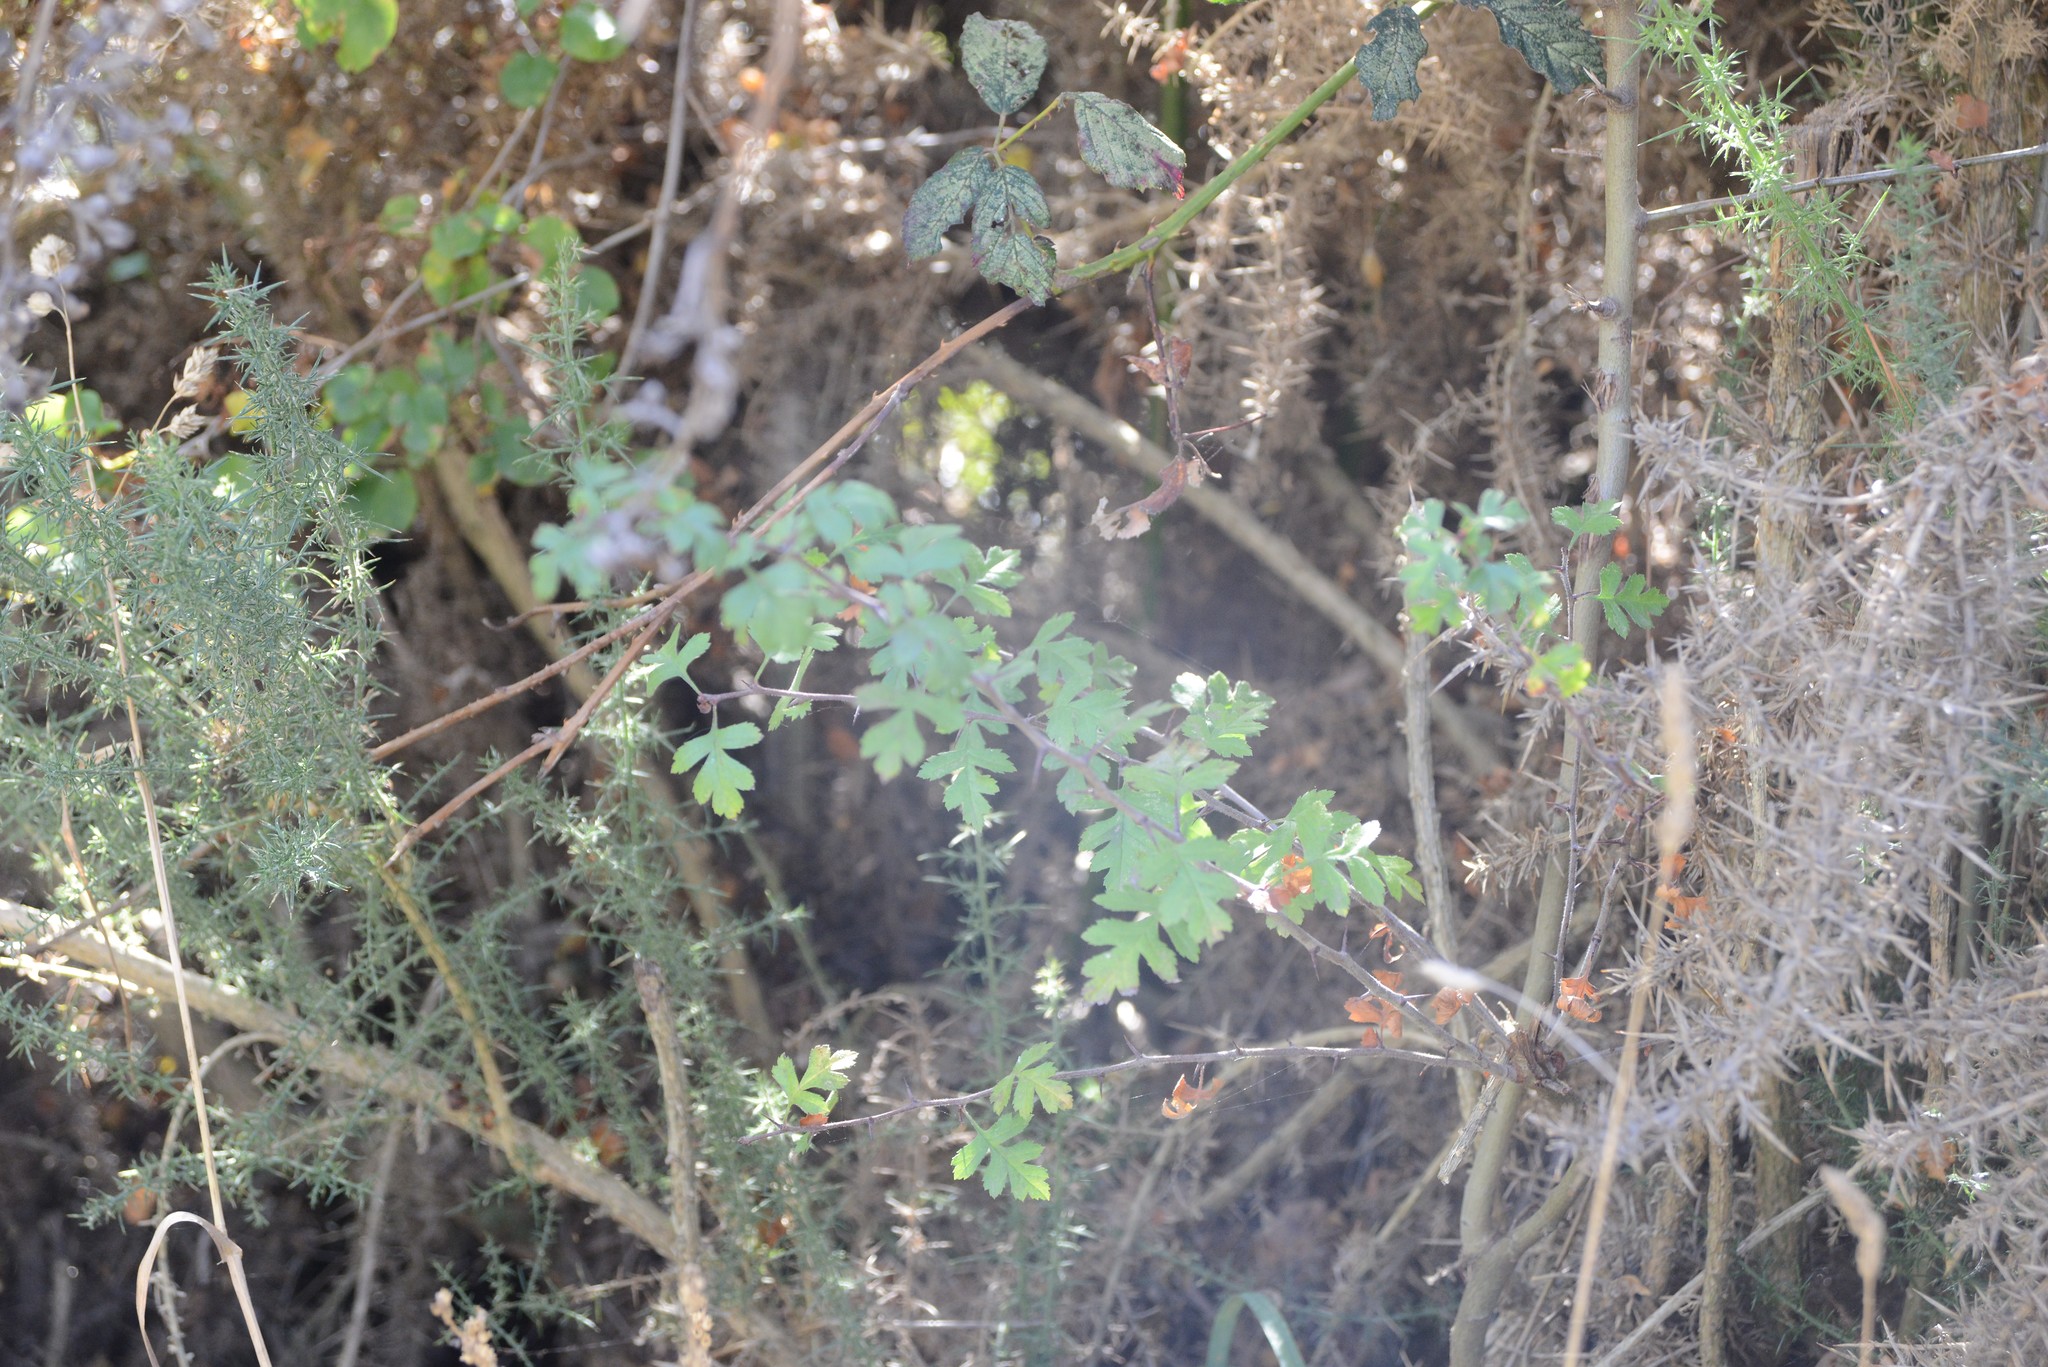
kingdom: Plantae
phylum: Tracheophyta
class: Magnoliopsida
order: Rosales
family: Rosaceae
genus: Crataegus
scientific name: Crataegus monogyna
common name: Hawthorn
